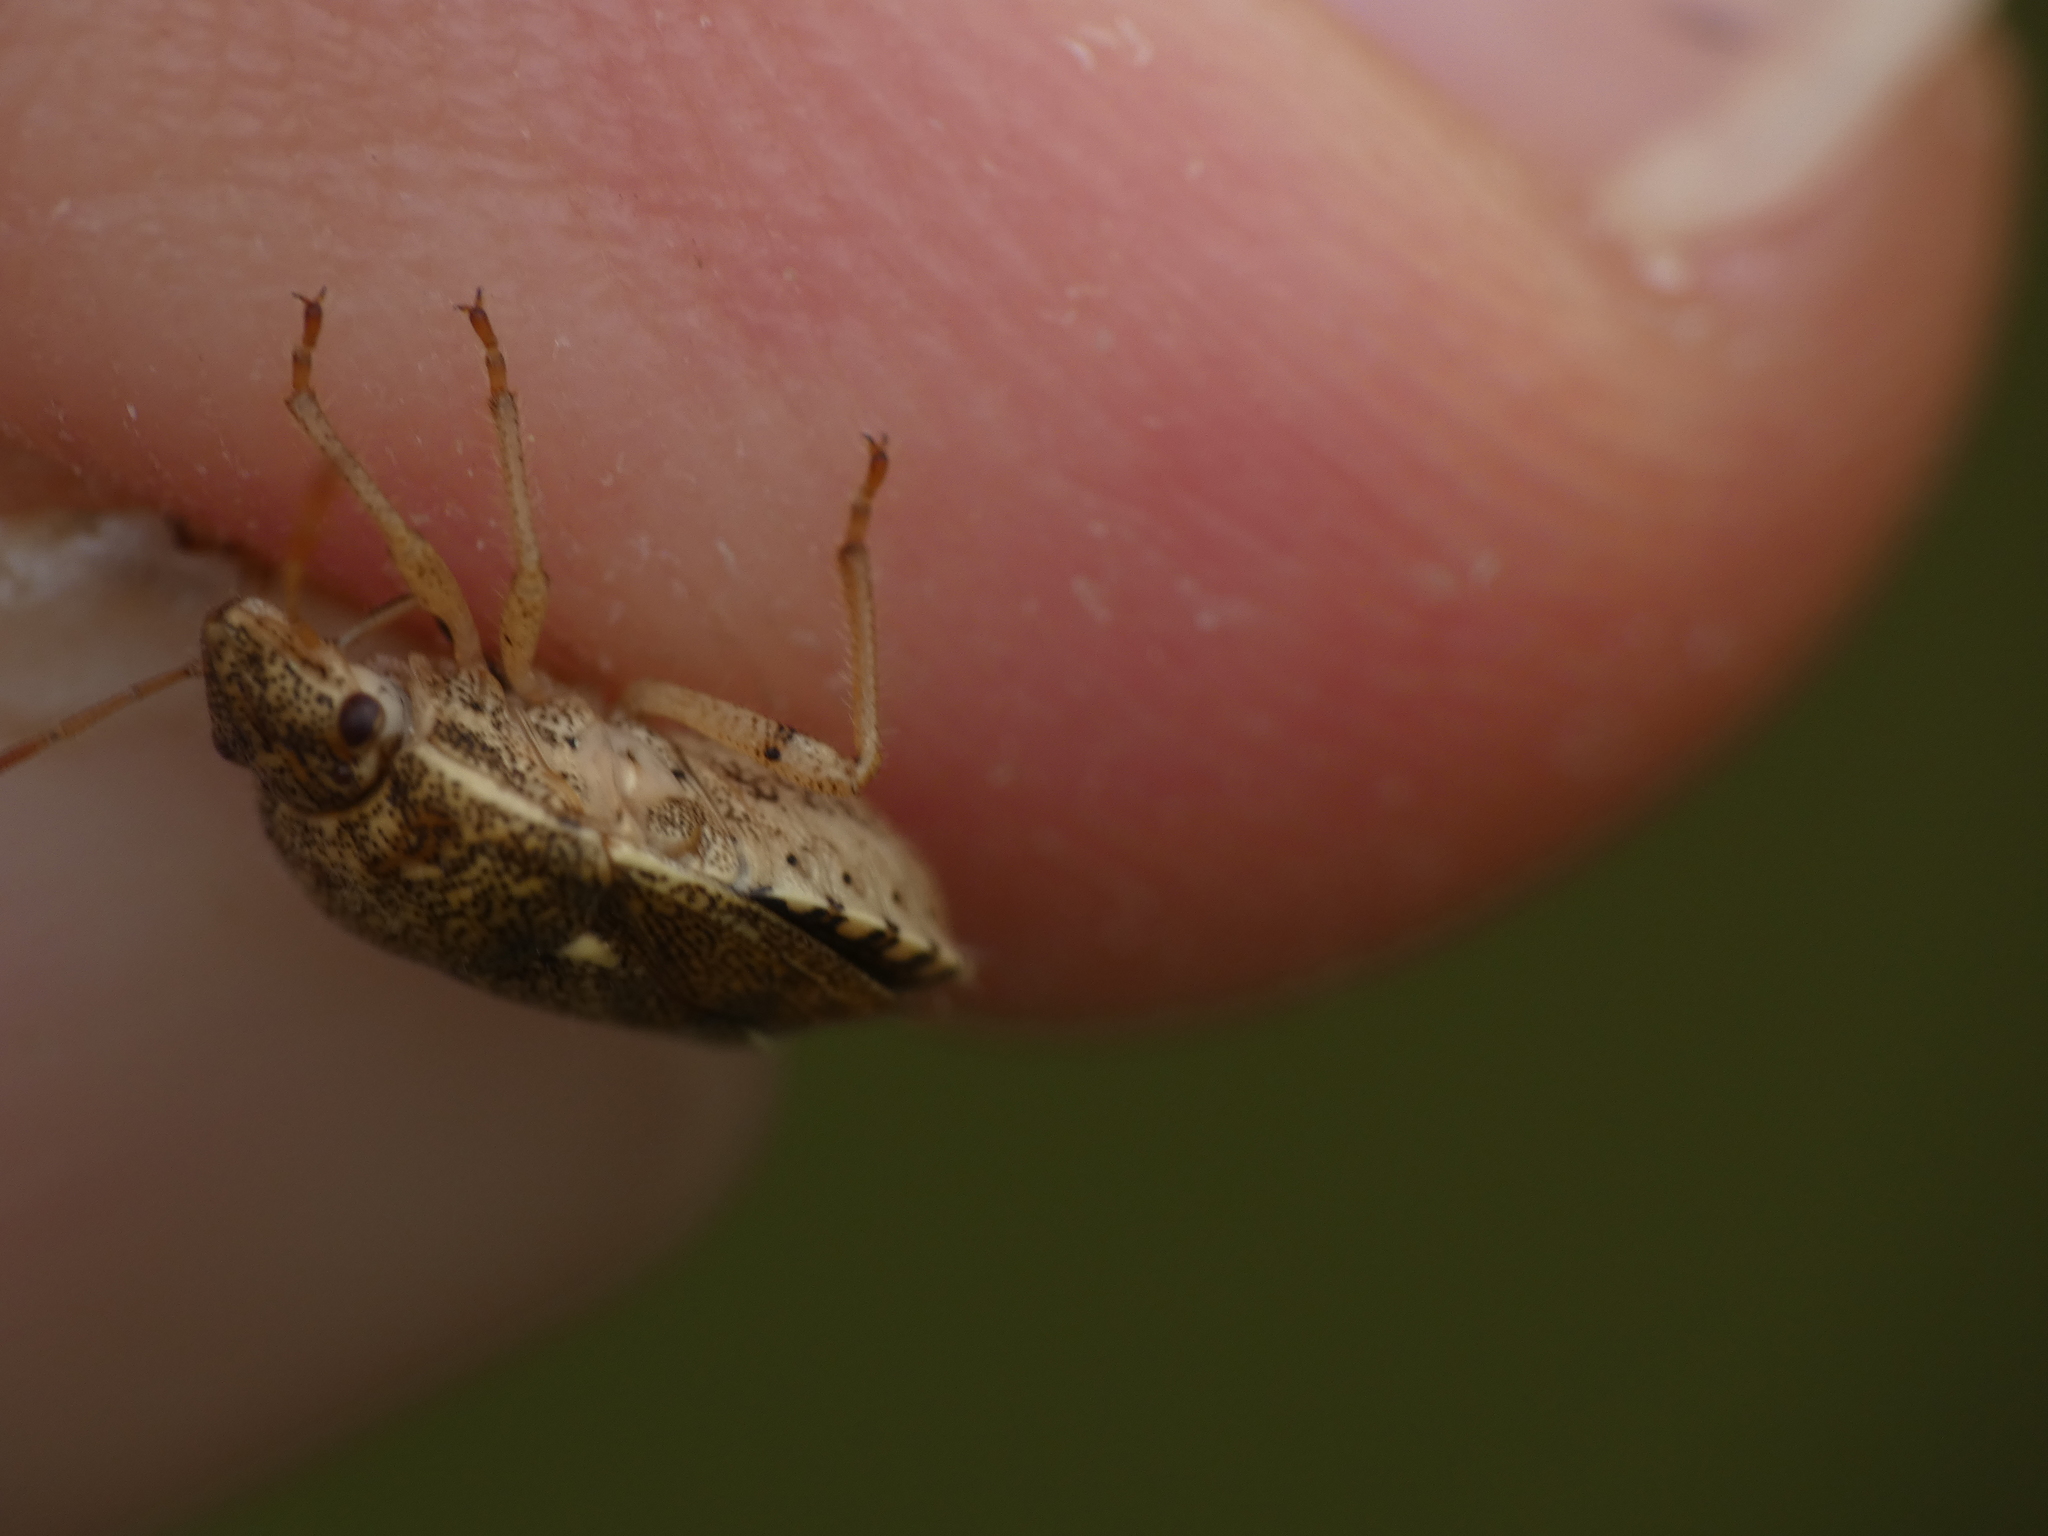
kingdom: Animalia
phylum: Arthropoda
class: Insecta
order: Hemiptera
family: Pentatomidae
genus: Staria
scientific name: Staria lunata
